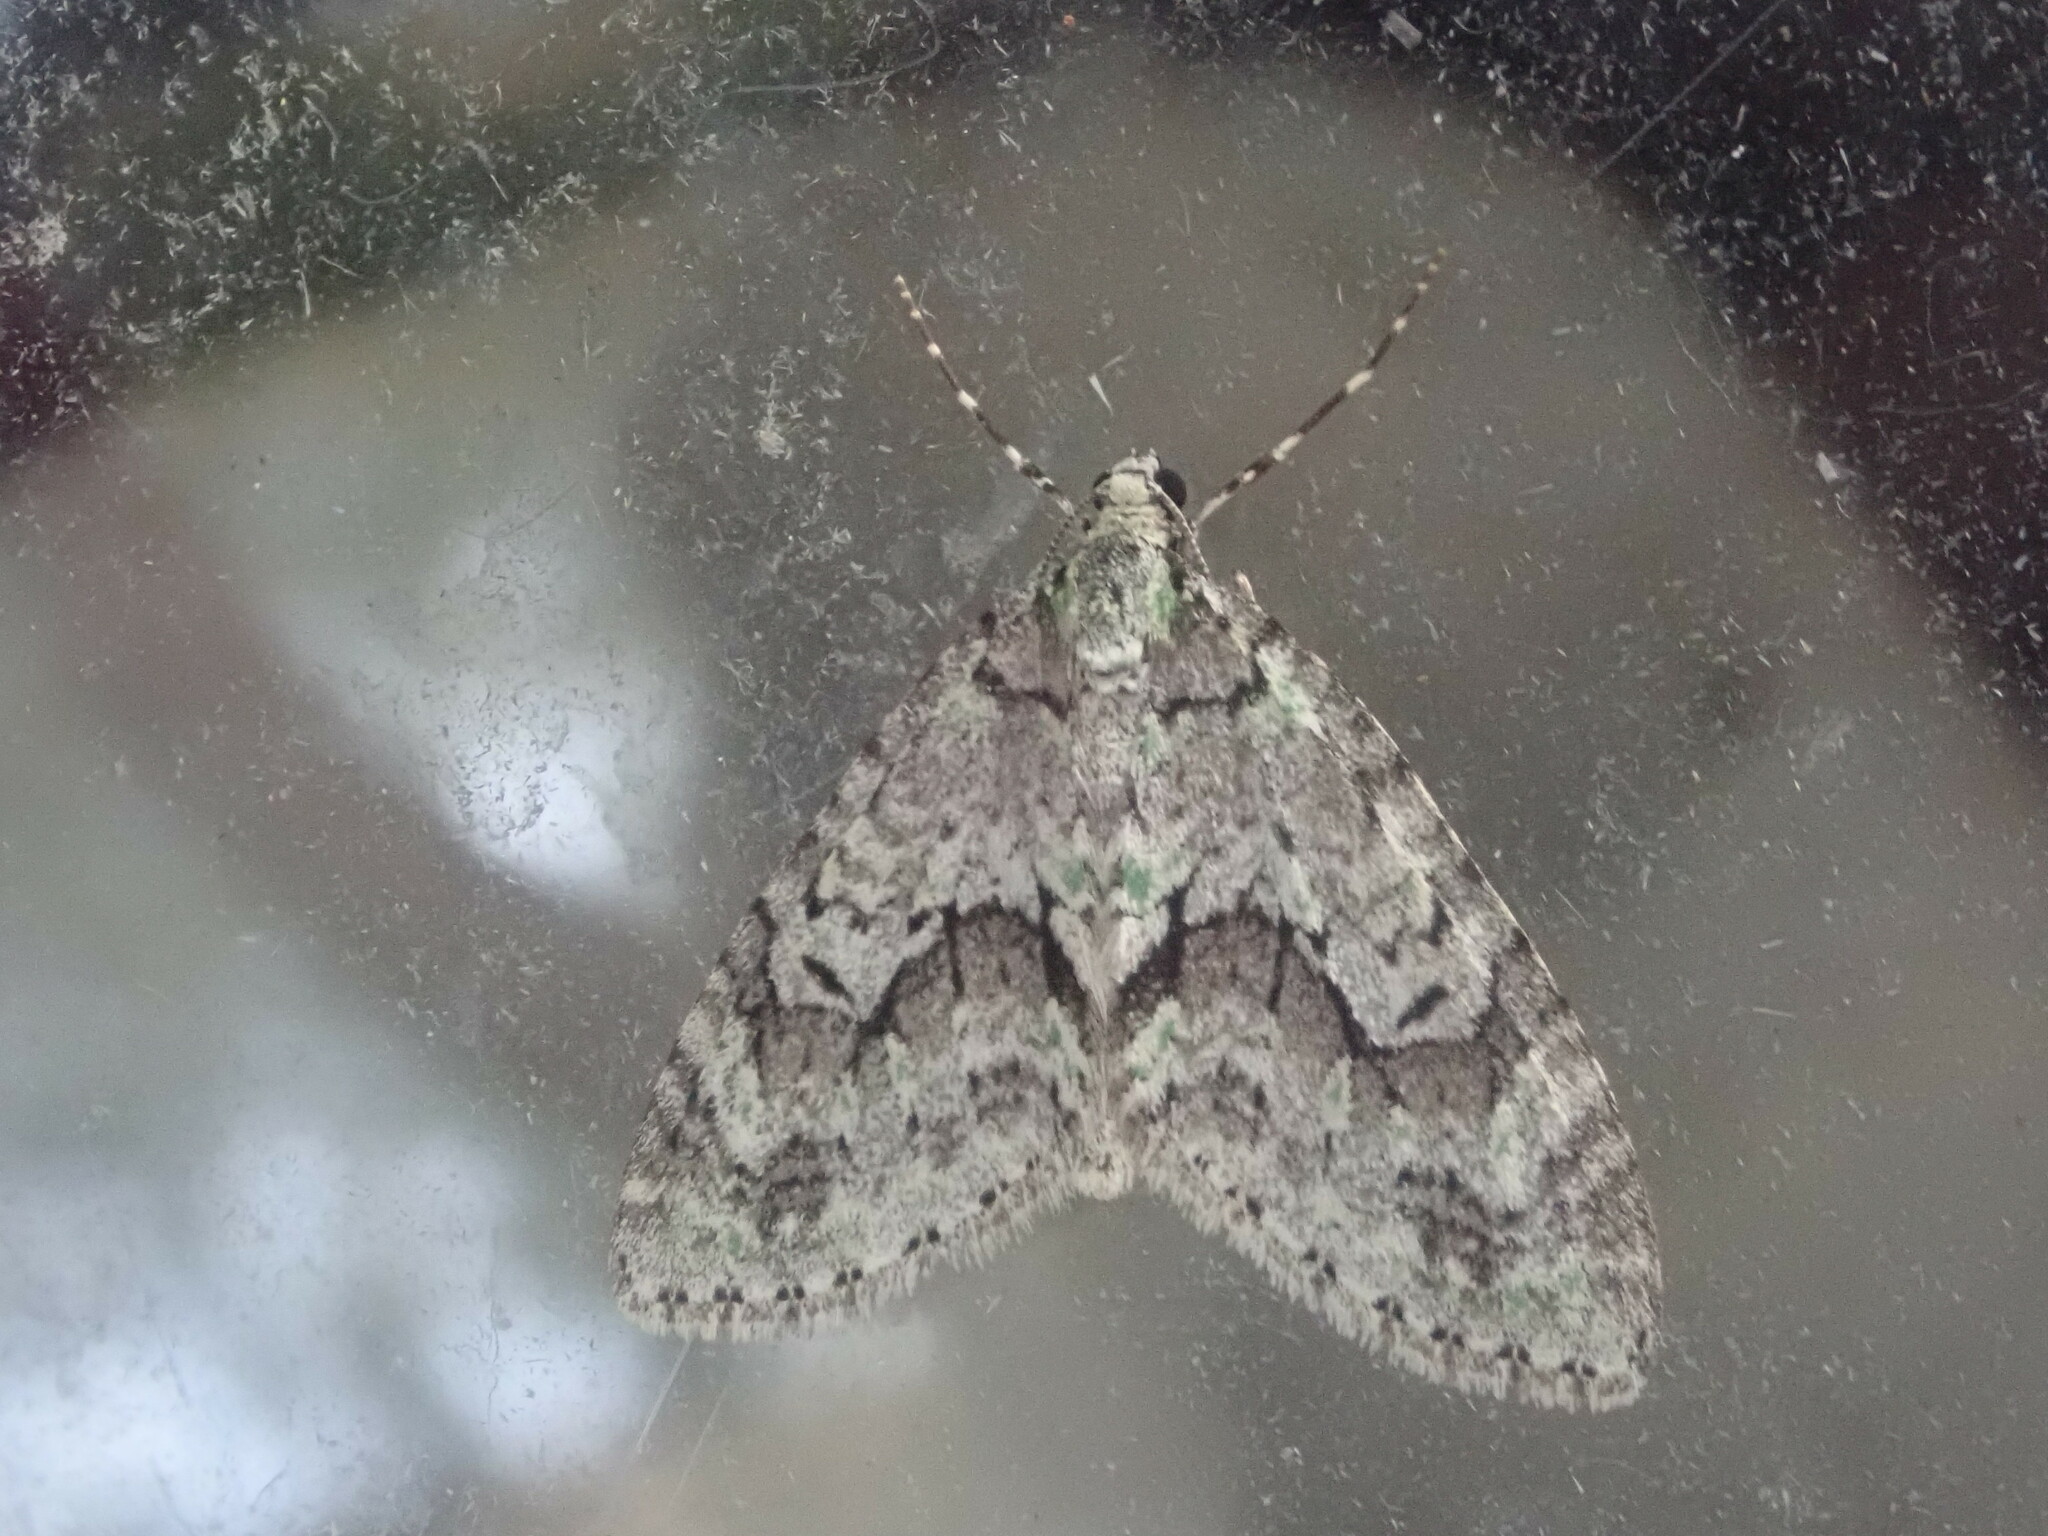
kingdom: Animalia
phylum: Arthropoda
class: Insecta
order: Lepidoptera
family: Geometridae
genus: Cladara
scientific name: Cladara limitaria
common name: Mottled gray carpet
